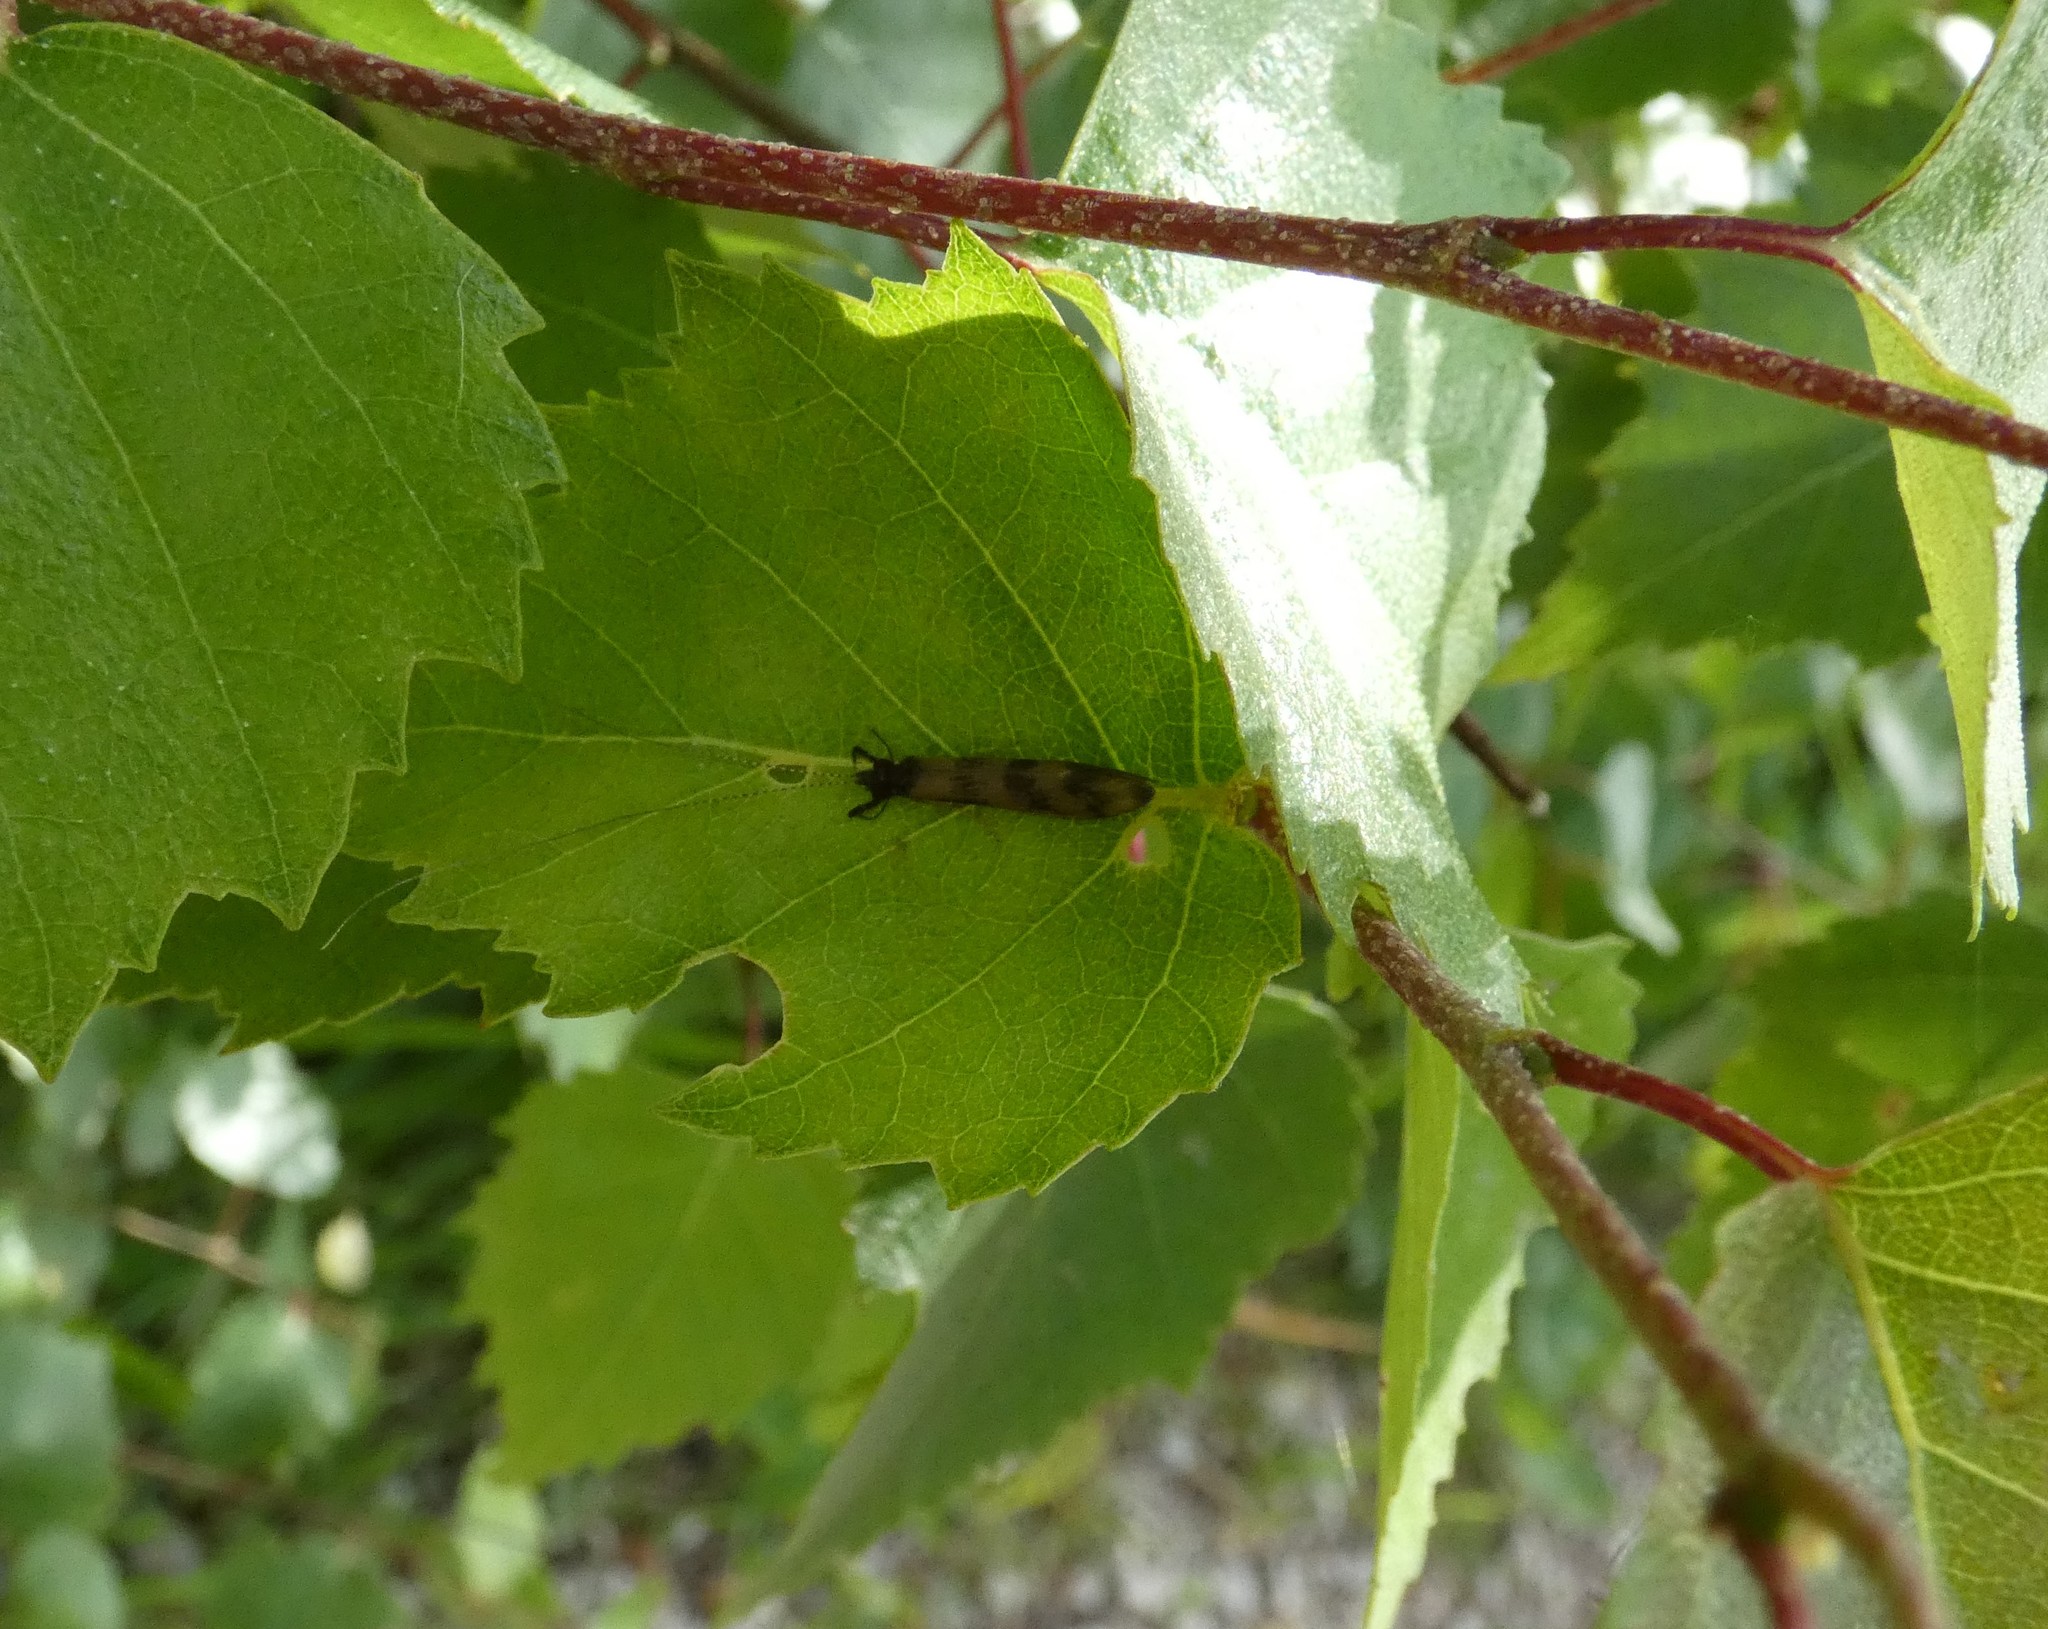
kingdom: Animalia
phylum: Arthropoda
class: Insecta
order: Trichoptera
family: Leptoceridae
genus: Mystacides
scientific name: Mystacides longicornis
